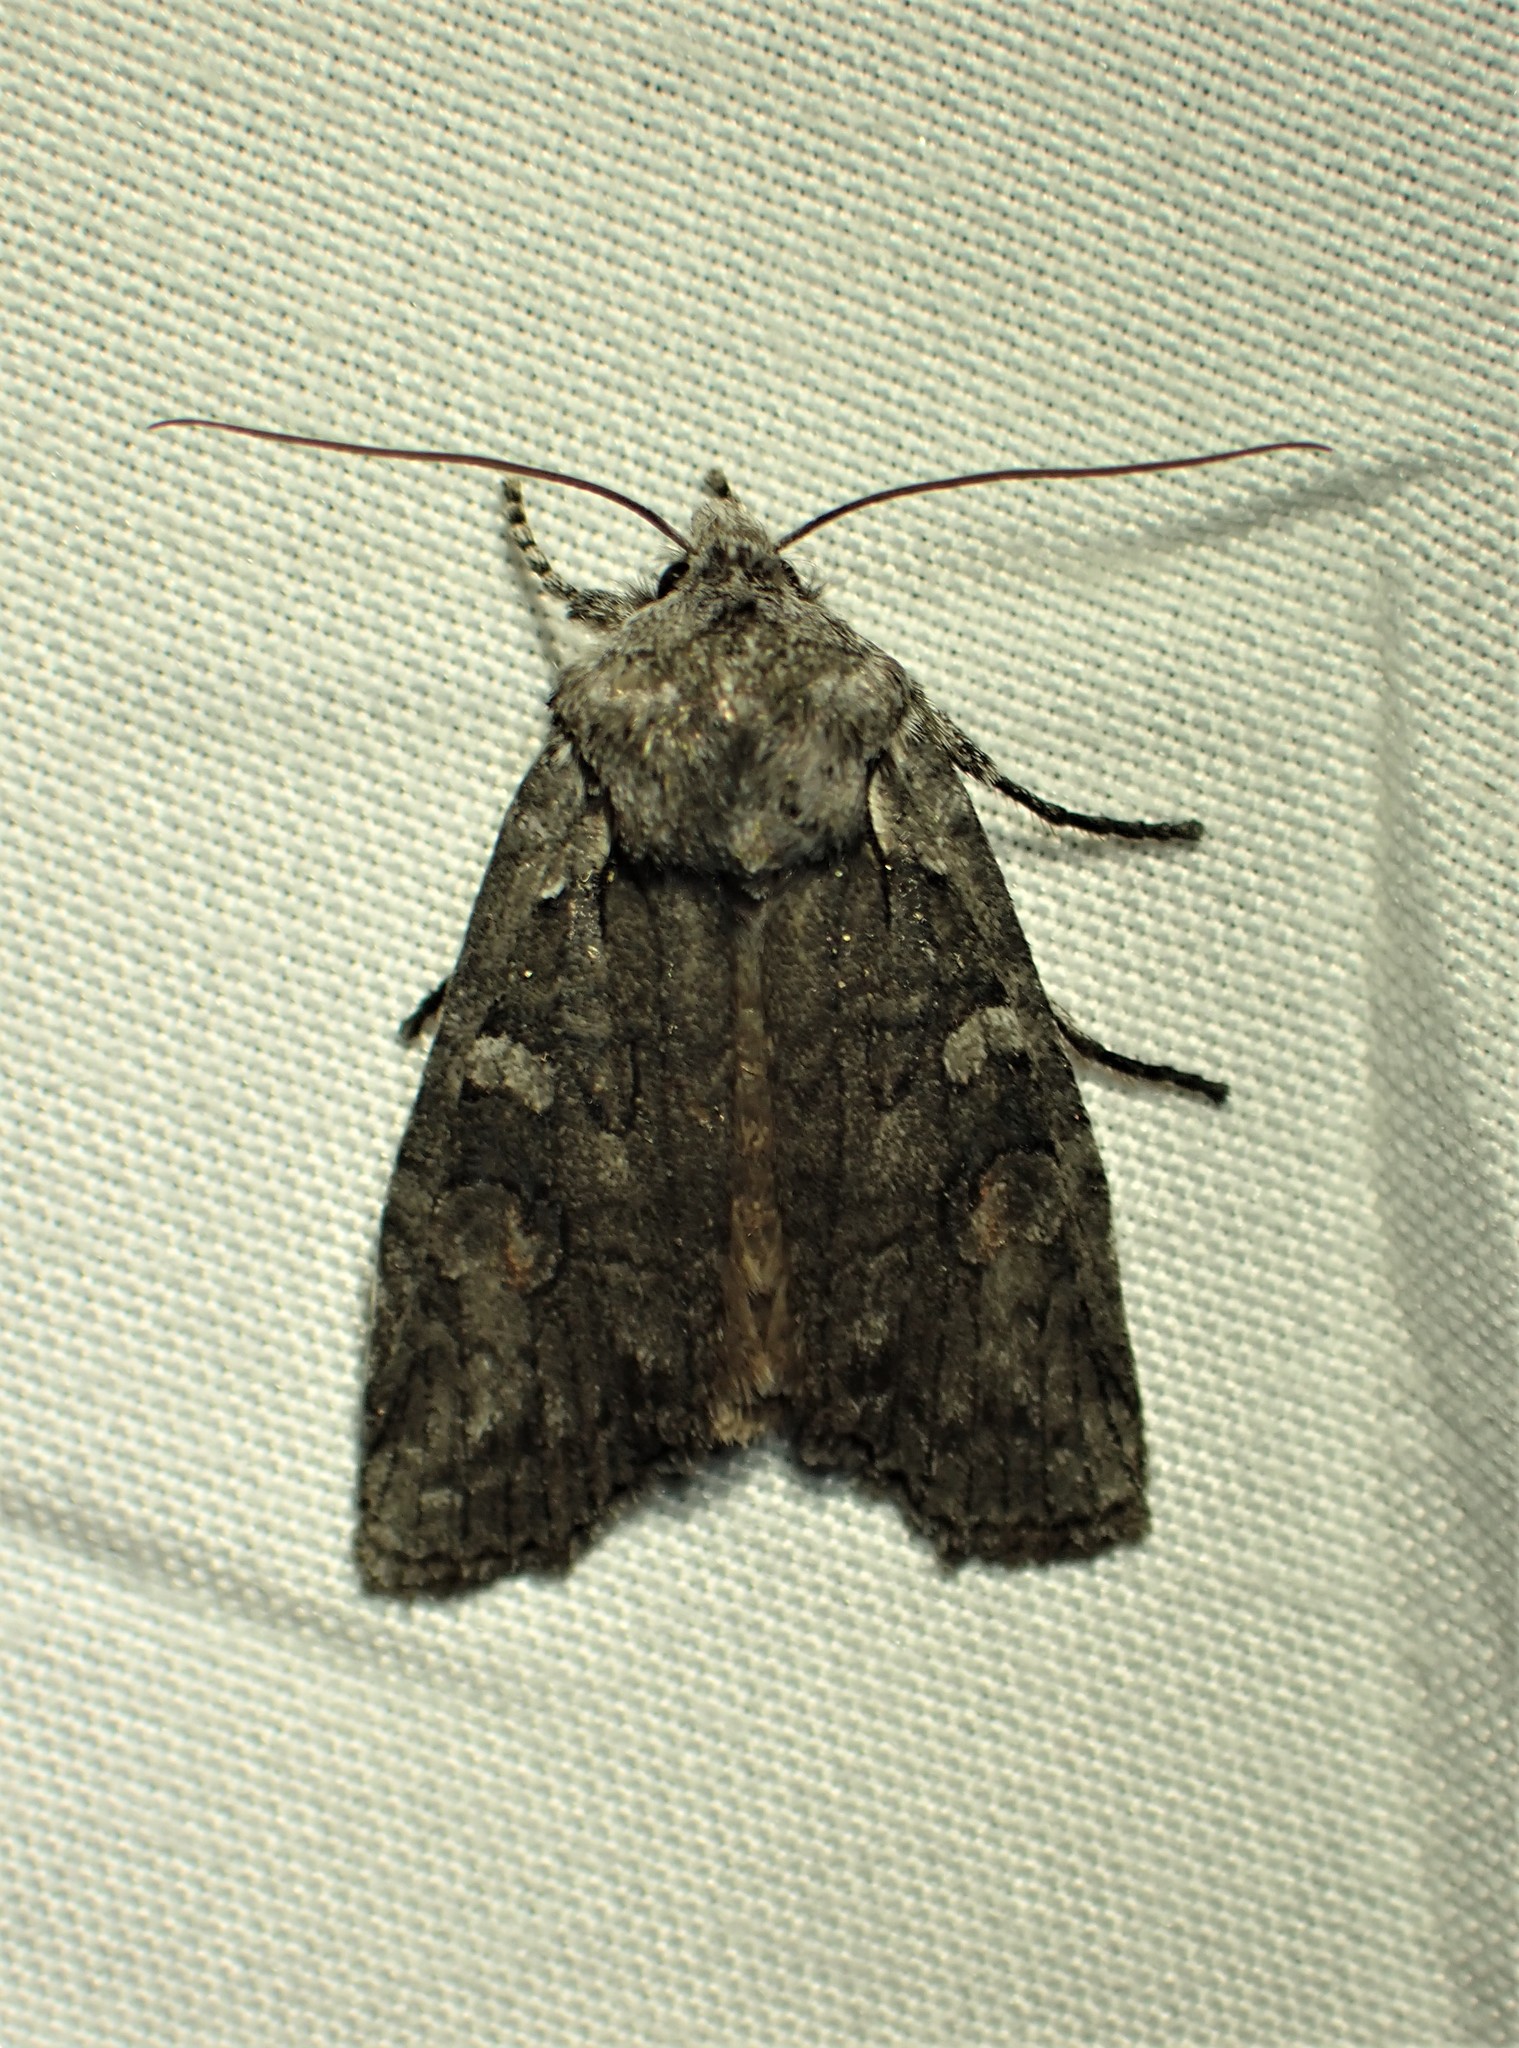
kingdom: Animalia
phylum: Arthropoda
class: Insecta
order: Lepidoptera
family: Noctuidae
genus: Lithophane
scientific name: Lithophane tepida
